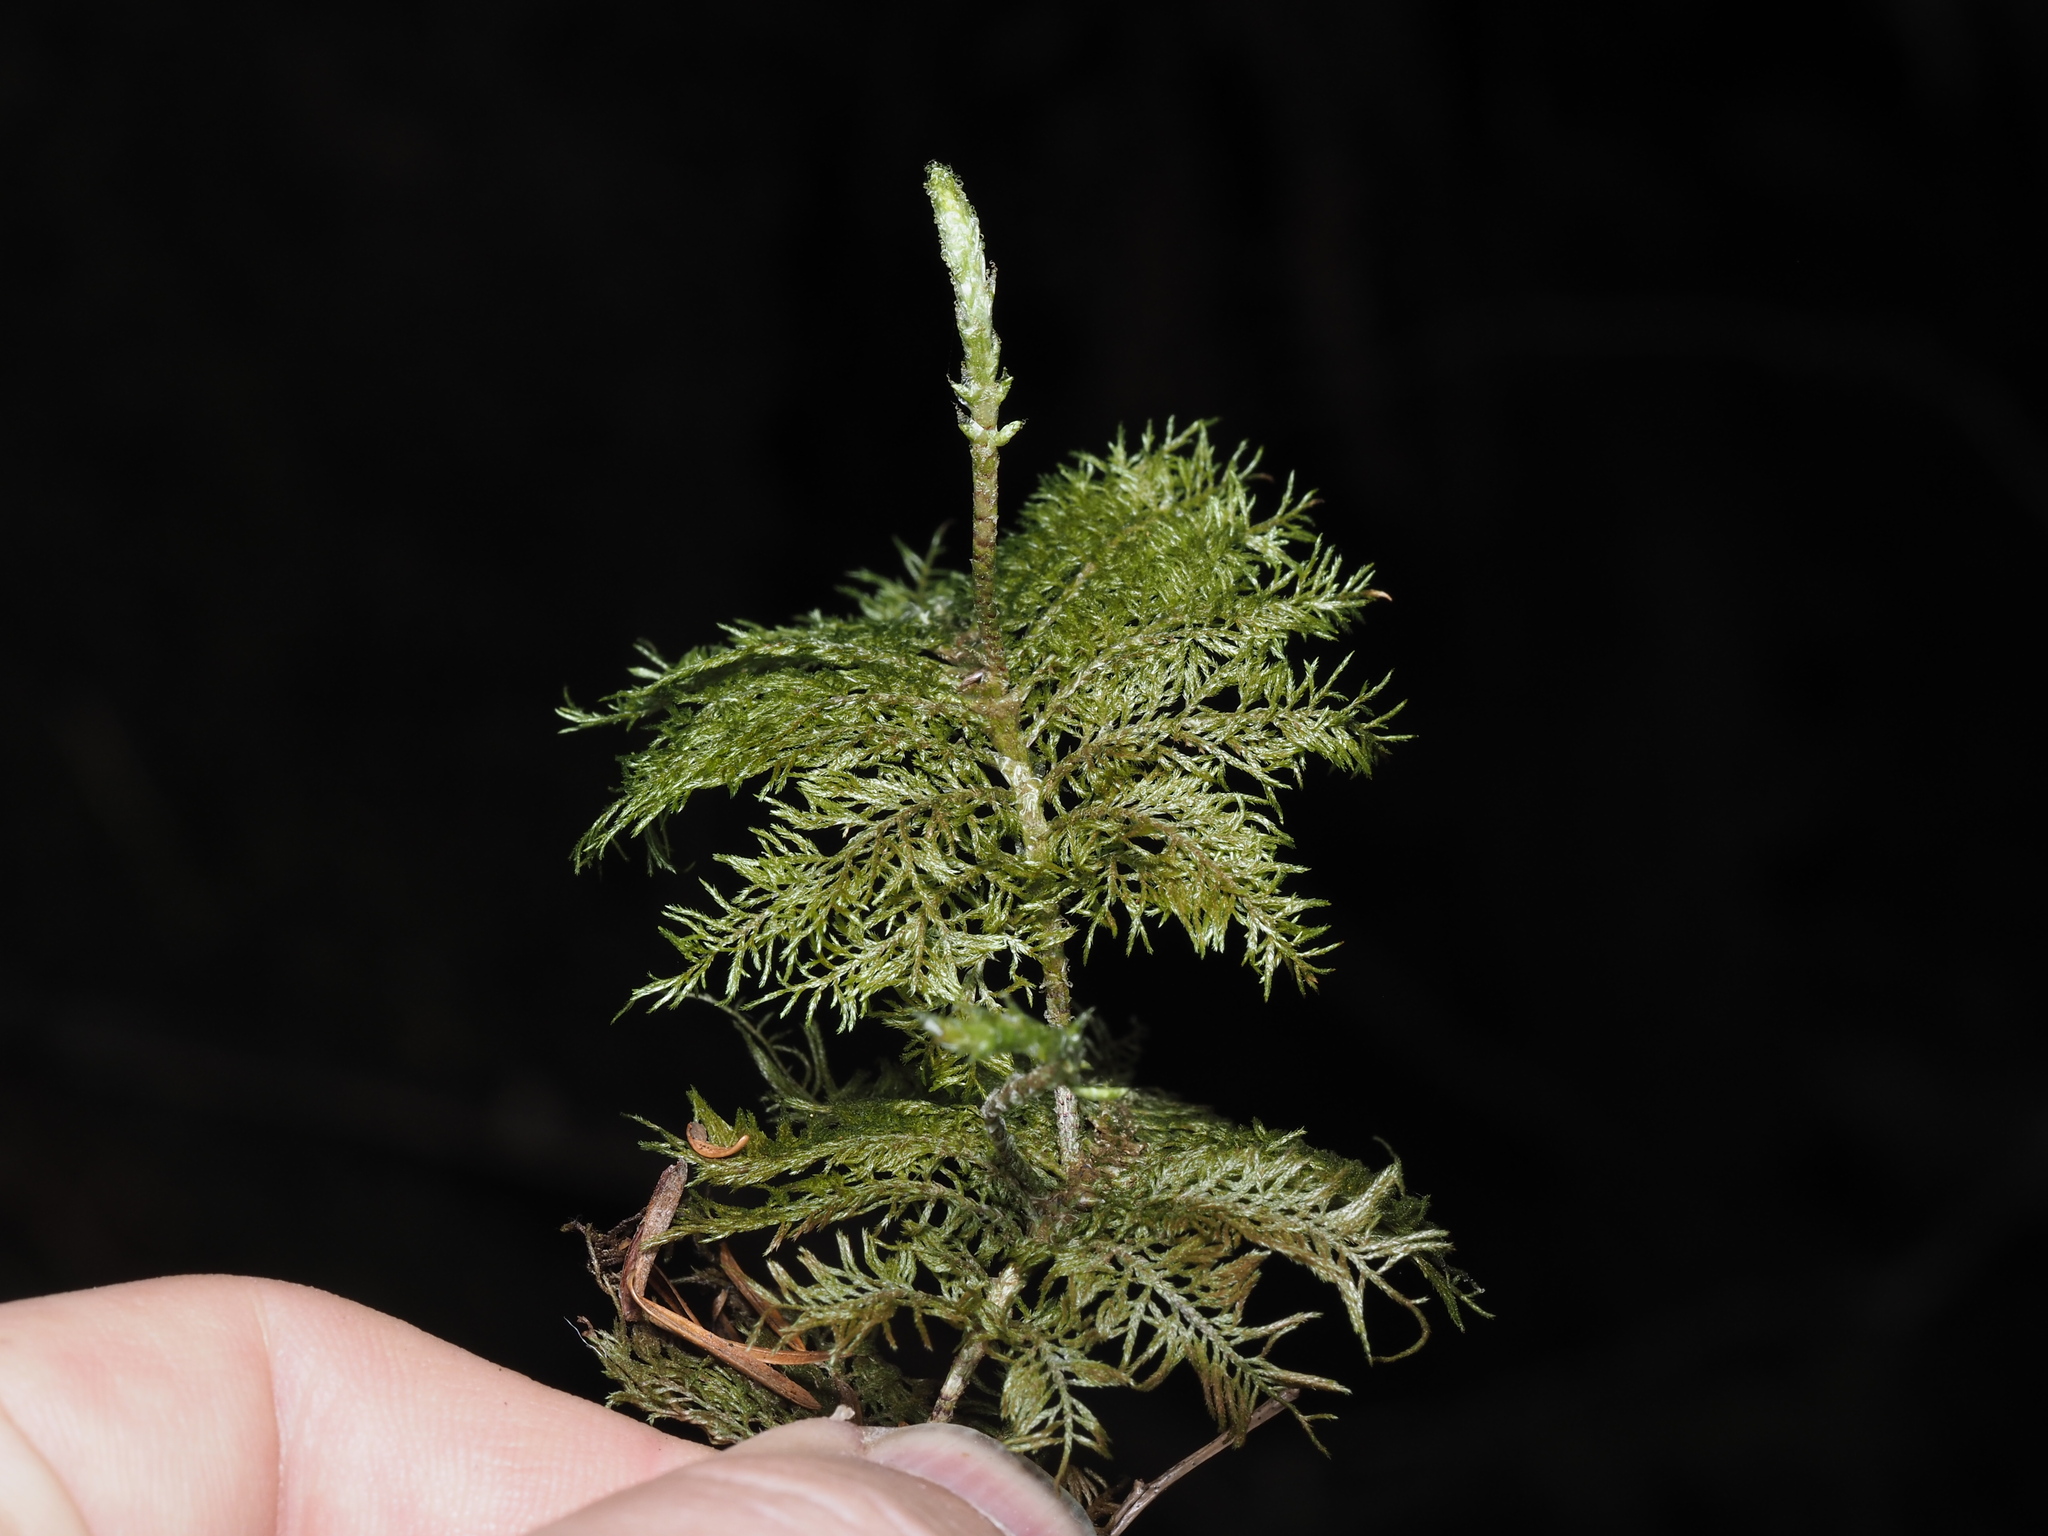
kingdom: Plantae
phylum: Bryophyta
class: Bryopsida
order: Hypnales
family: Hylocomiaceae
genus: Hylocomium
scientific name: Hylocomium splendens
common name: Stairstep moss
